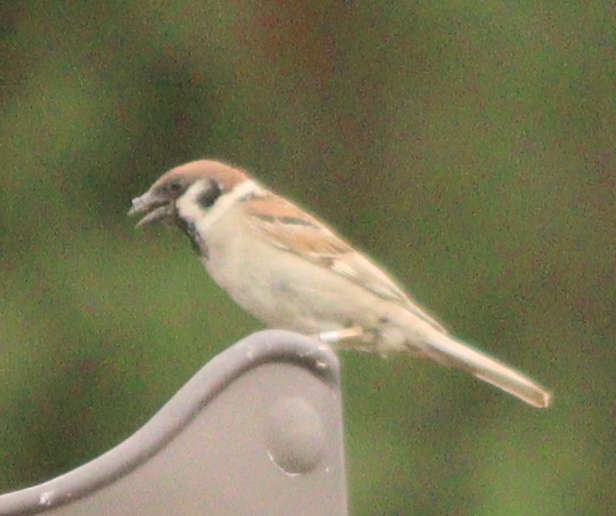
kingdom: Animalia
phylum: Chordata
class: Aves
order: Passeriformes
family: Passeridae
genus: Passer
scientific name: Passer montanus
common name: Eurasian tree sparrow
